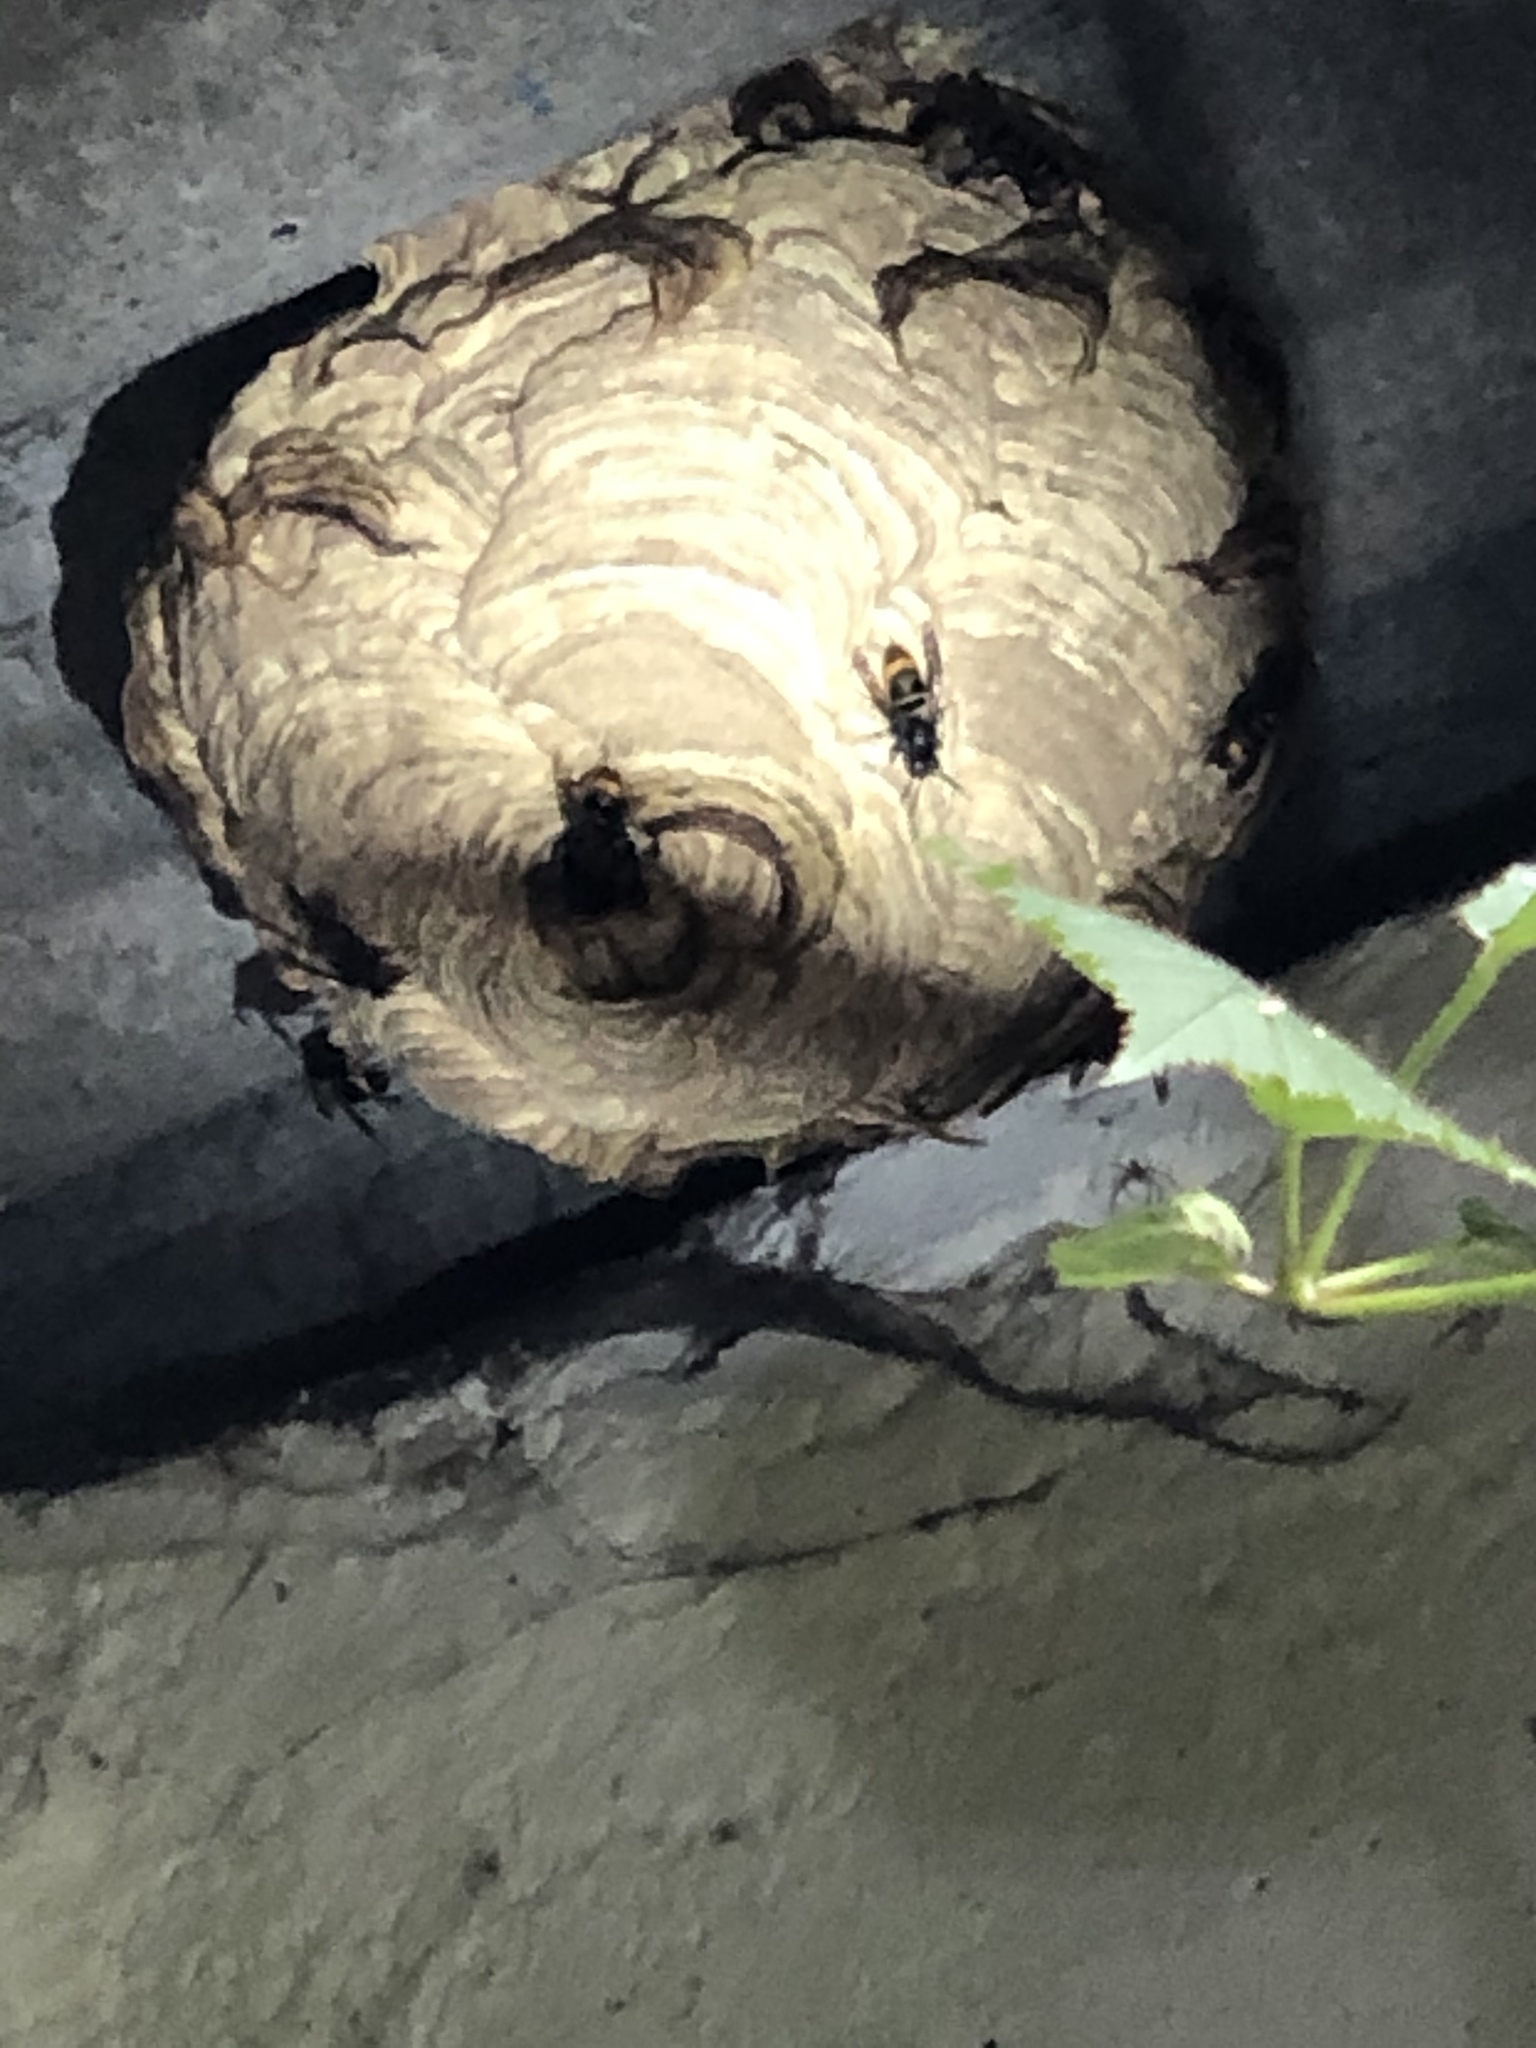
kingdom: Animalia
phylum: Arthropoda
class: Insecta
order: Hymenoptera
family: Vespidae
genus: Vespa
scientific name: Vespa velutina
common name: Asian hornet
